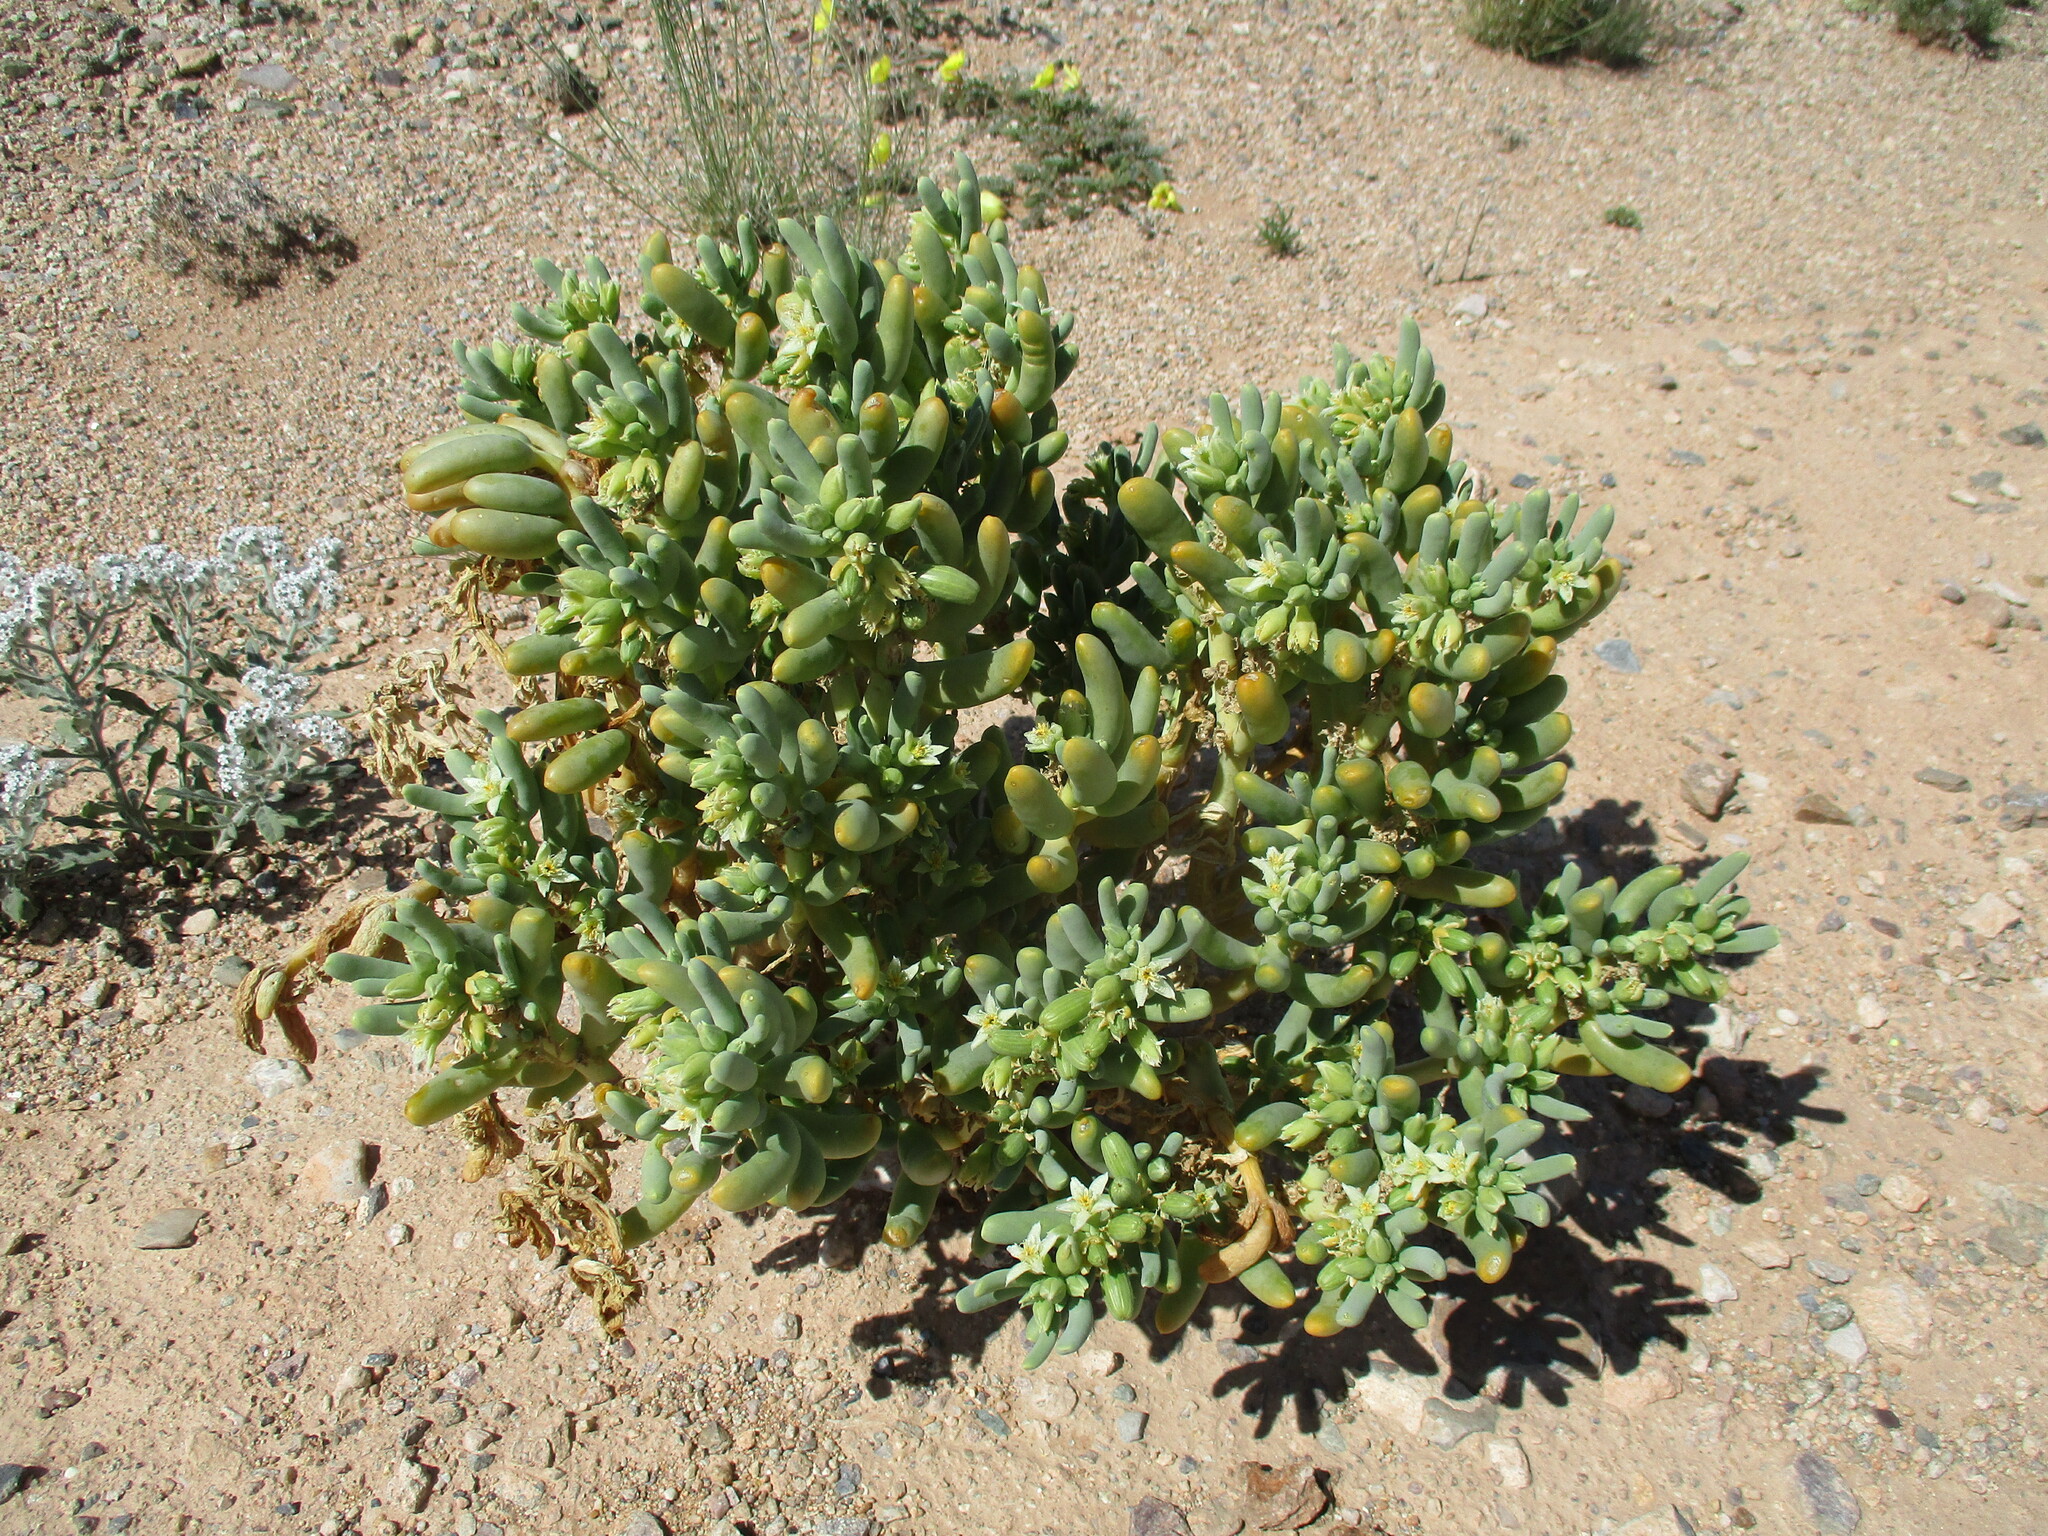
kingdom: Plantae
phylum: Tracheophyta
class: Magnoliopsida
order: Zygophyllales
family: Zygophyllaceae
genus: Augea
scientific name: Augea capensis
